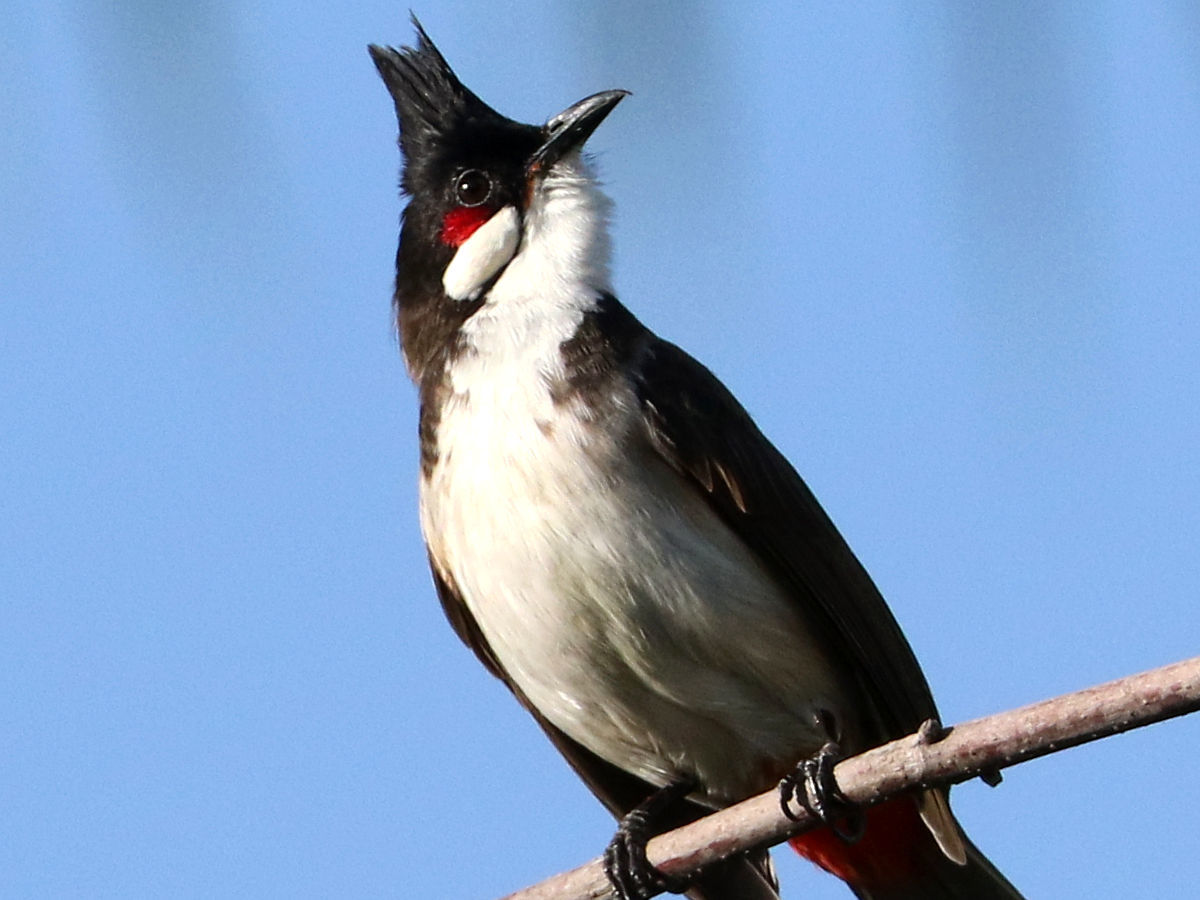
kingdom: Animalia
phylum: Chordata
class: Aves
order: Passeriformes
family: Pycnonotidae
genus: Pycnonotus
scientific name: Pycnonotus jocosus
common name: Red-whiskered bulbul
